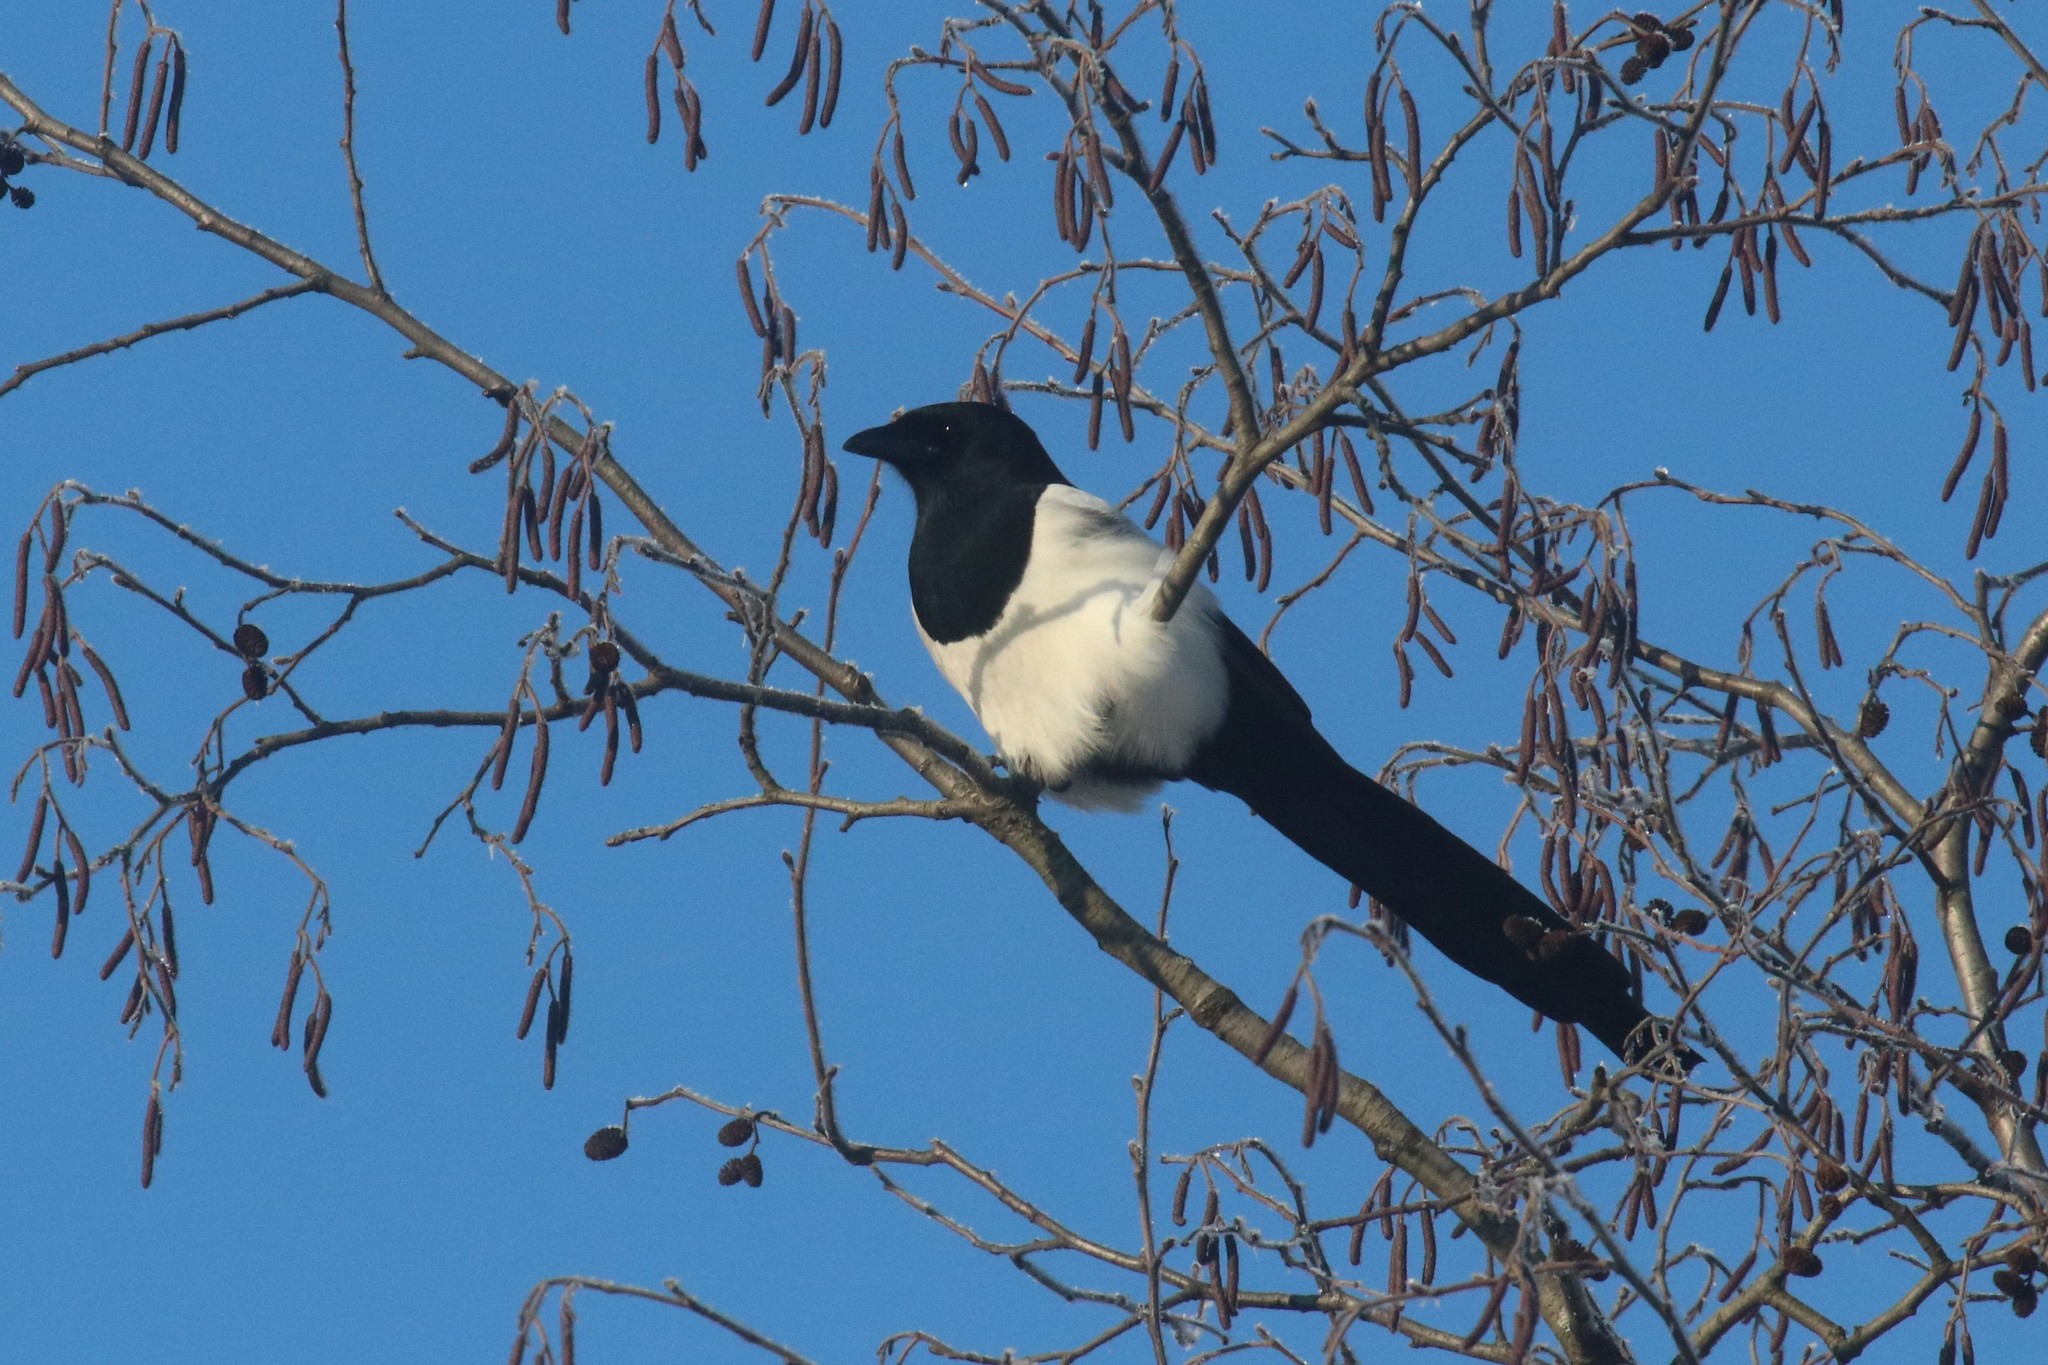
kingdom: Animalia
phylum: Chordata
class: Aves
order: Passeriformes
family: Corvidae
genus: Pica
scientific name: Pica pica
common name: Eurasian magpie
